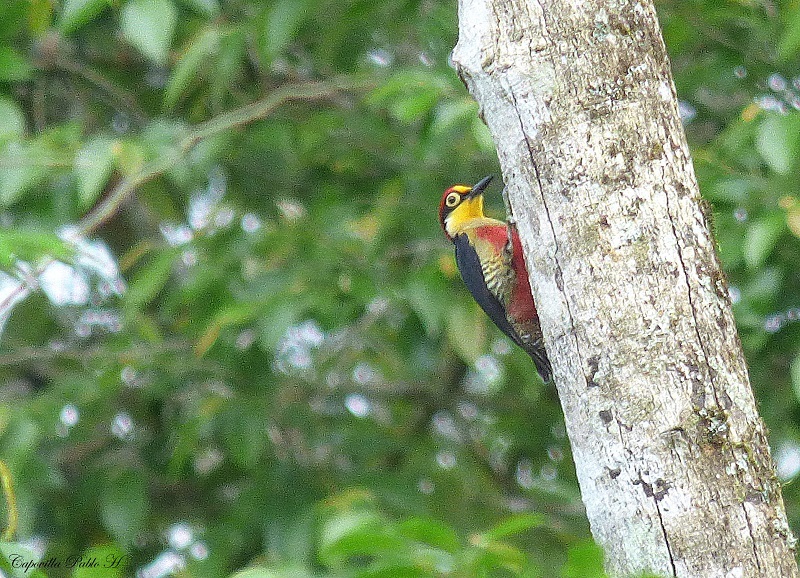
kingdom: Animalia
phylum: Chordata
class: Aves
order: Piciformes
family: Picidae
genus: Melanerpes
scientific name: Melanerpes flavifrons
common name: Yellow-fronted woodpecker
